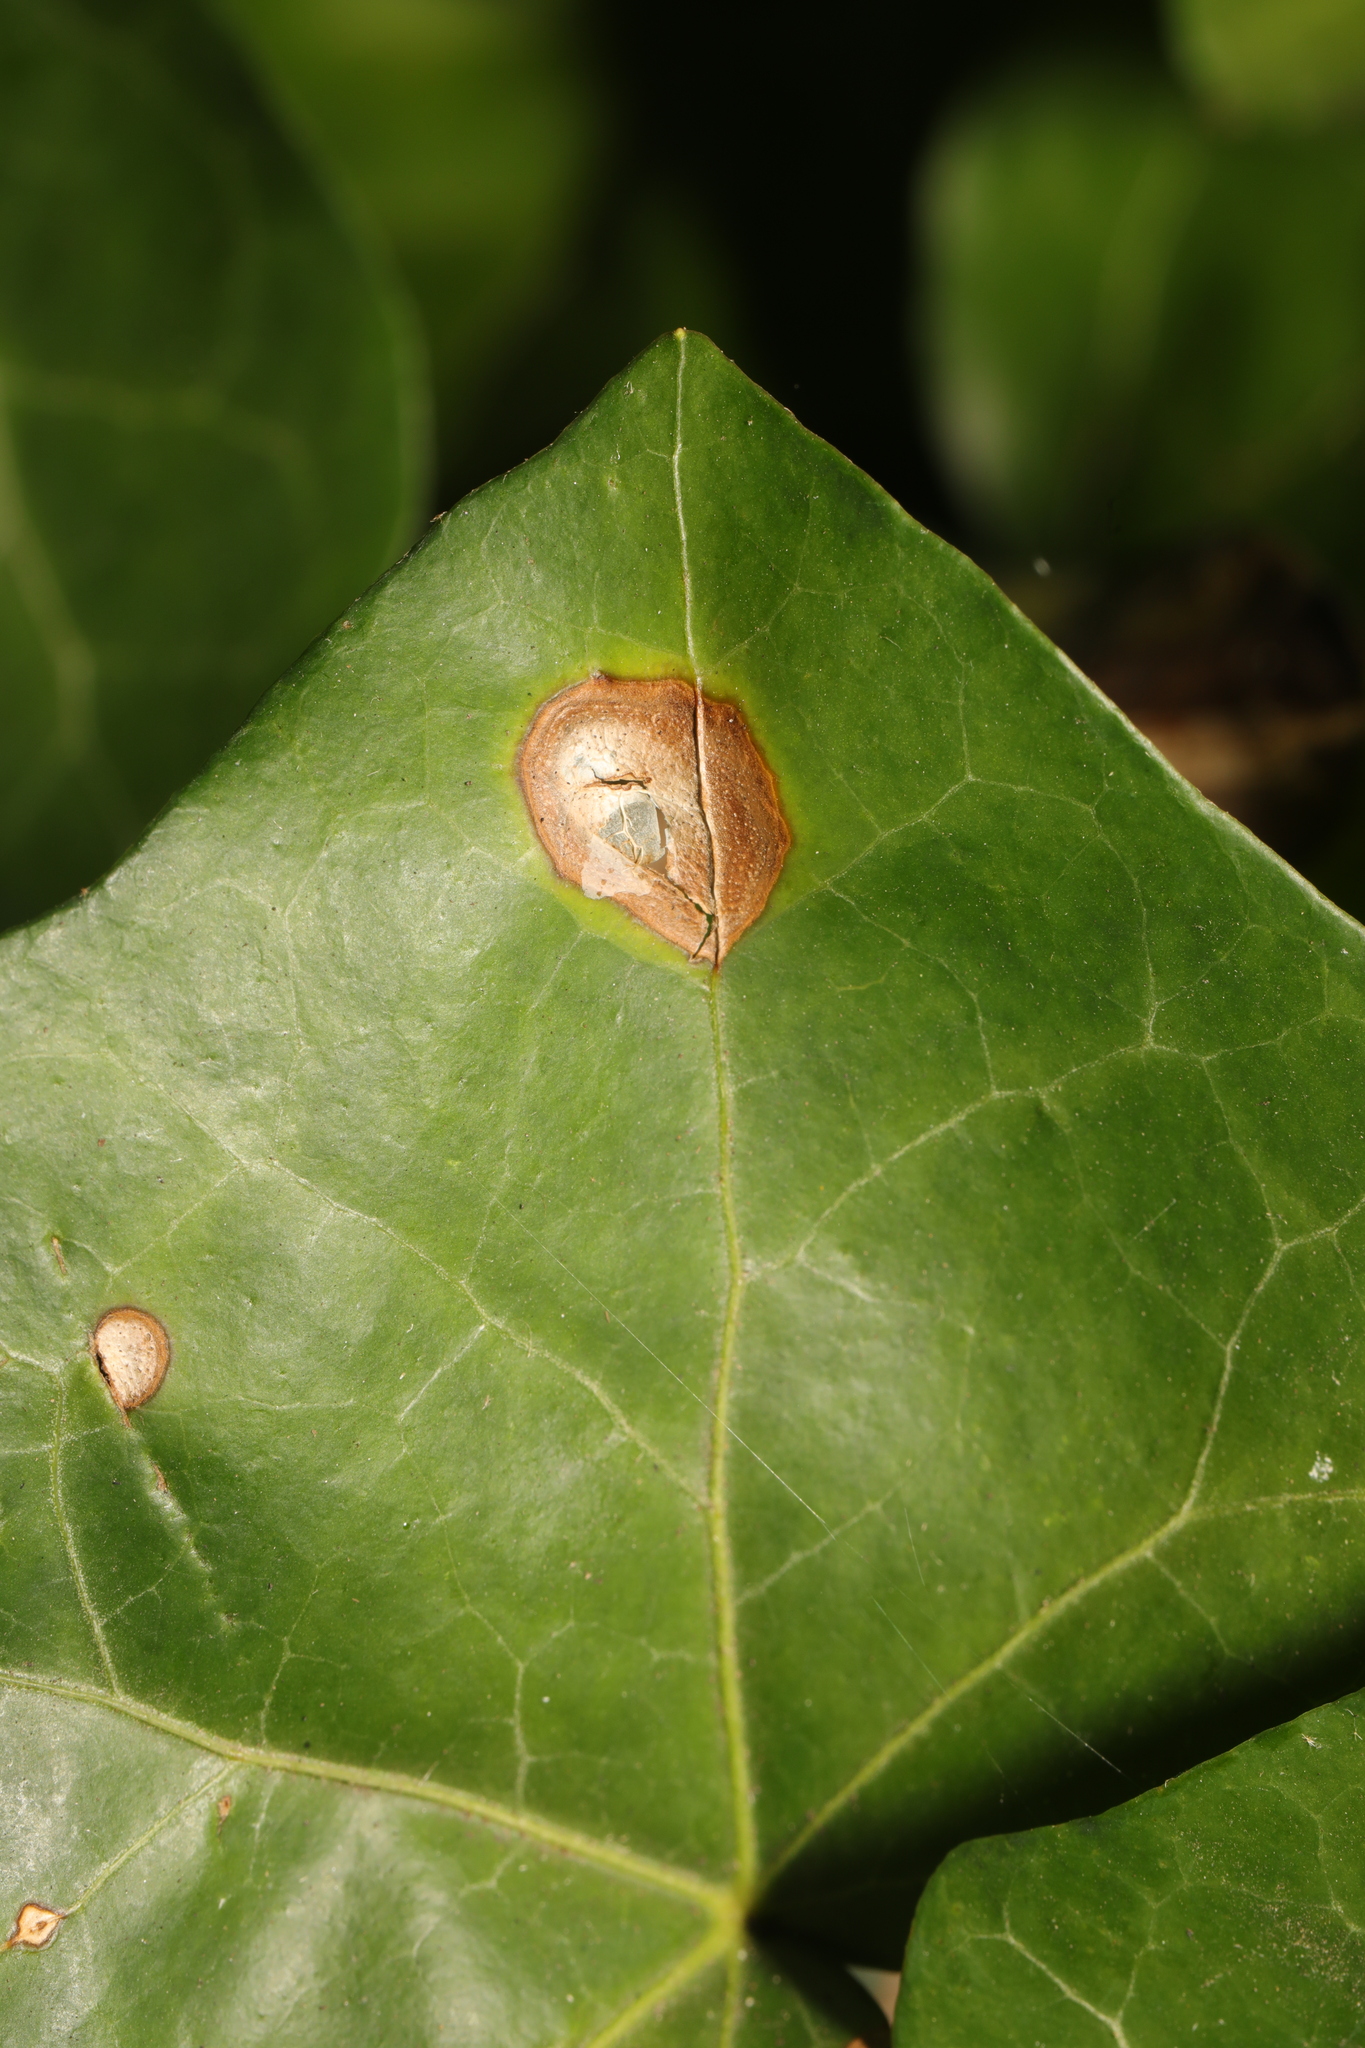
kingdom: Fungi
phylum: Ascomycota
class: Dothideomycetes
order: Pleosporales
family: Didymellaceae
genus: Boeremia
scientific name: Boeremia hedericola
